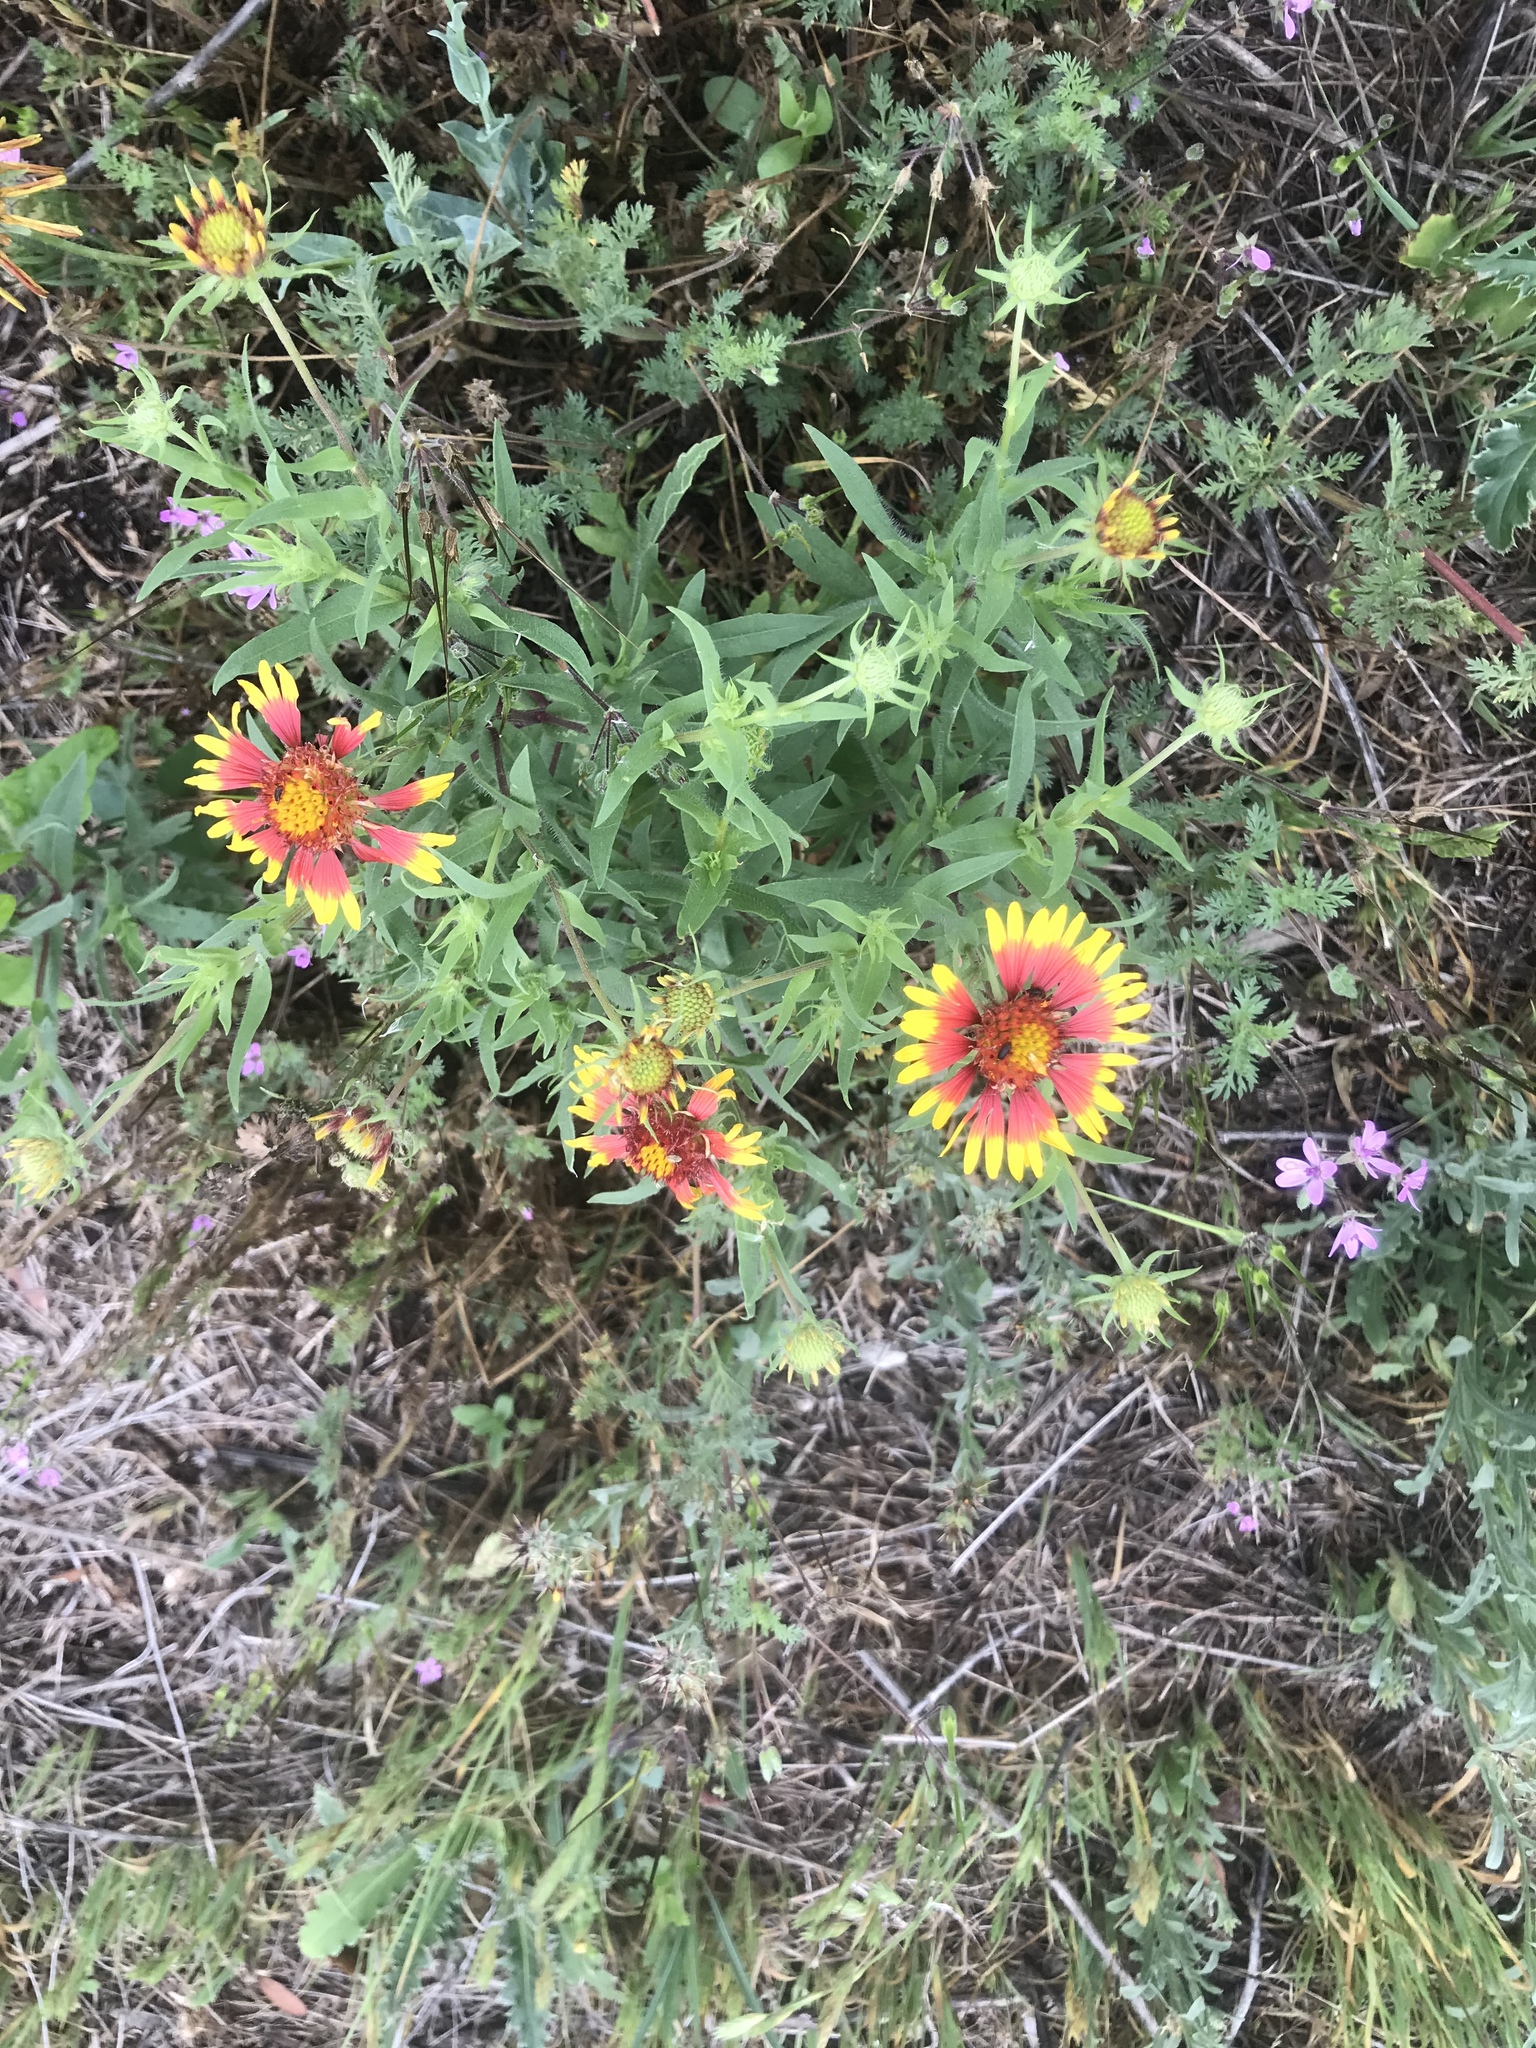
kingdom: Plantae
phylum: Tracheophyta
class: Magnoliopsida
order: Asterales
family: Asteraceae
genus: Gaillardia
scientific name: Gaillardia pulchella
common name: Firewheel
